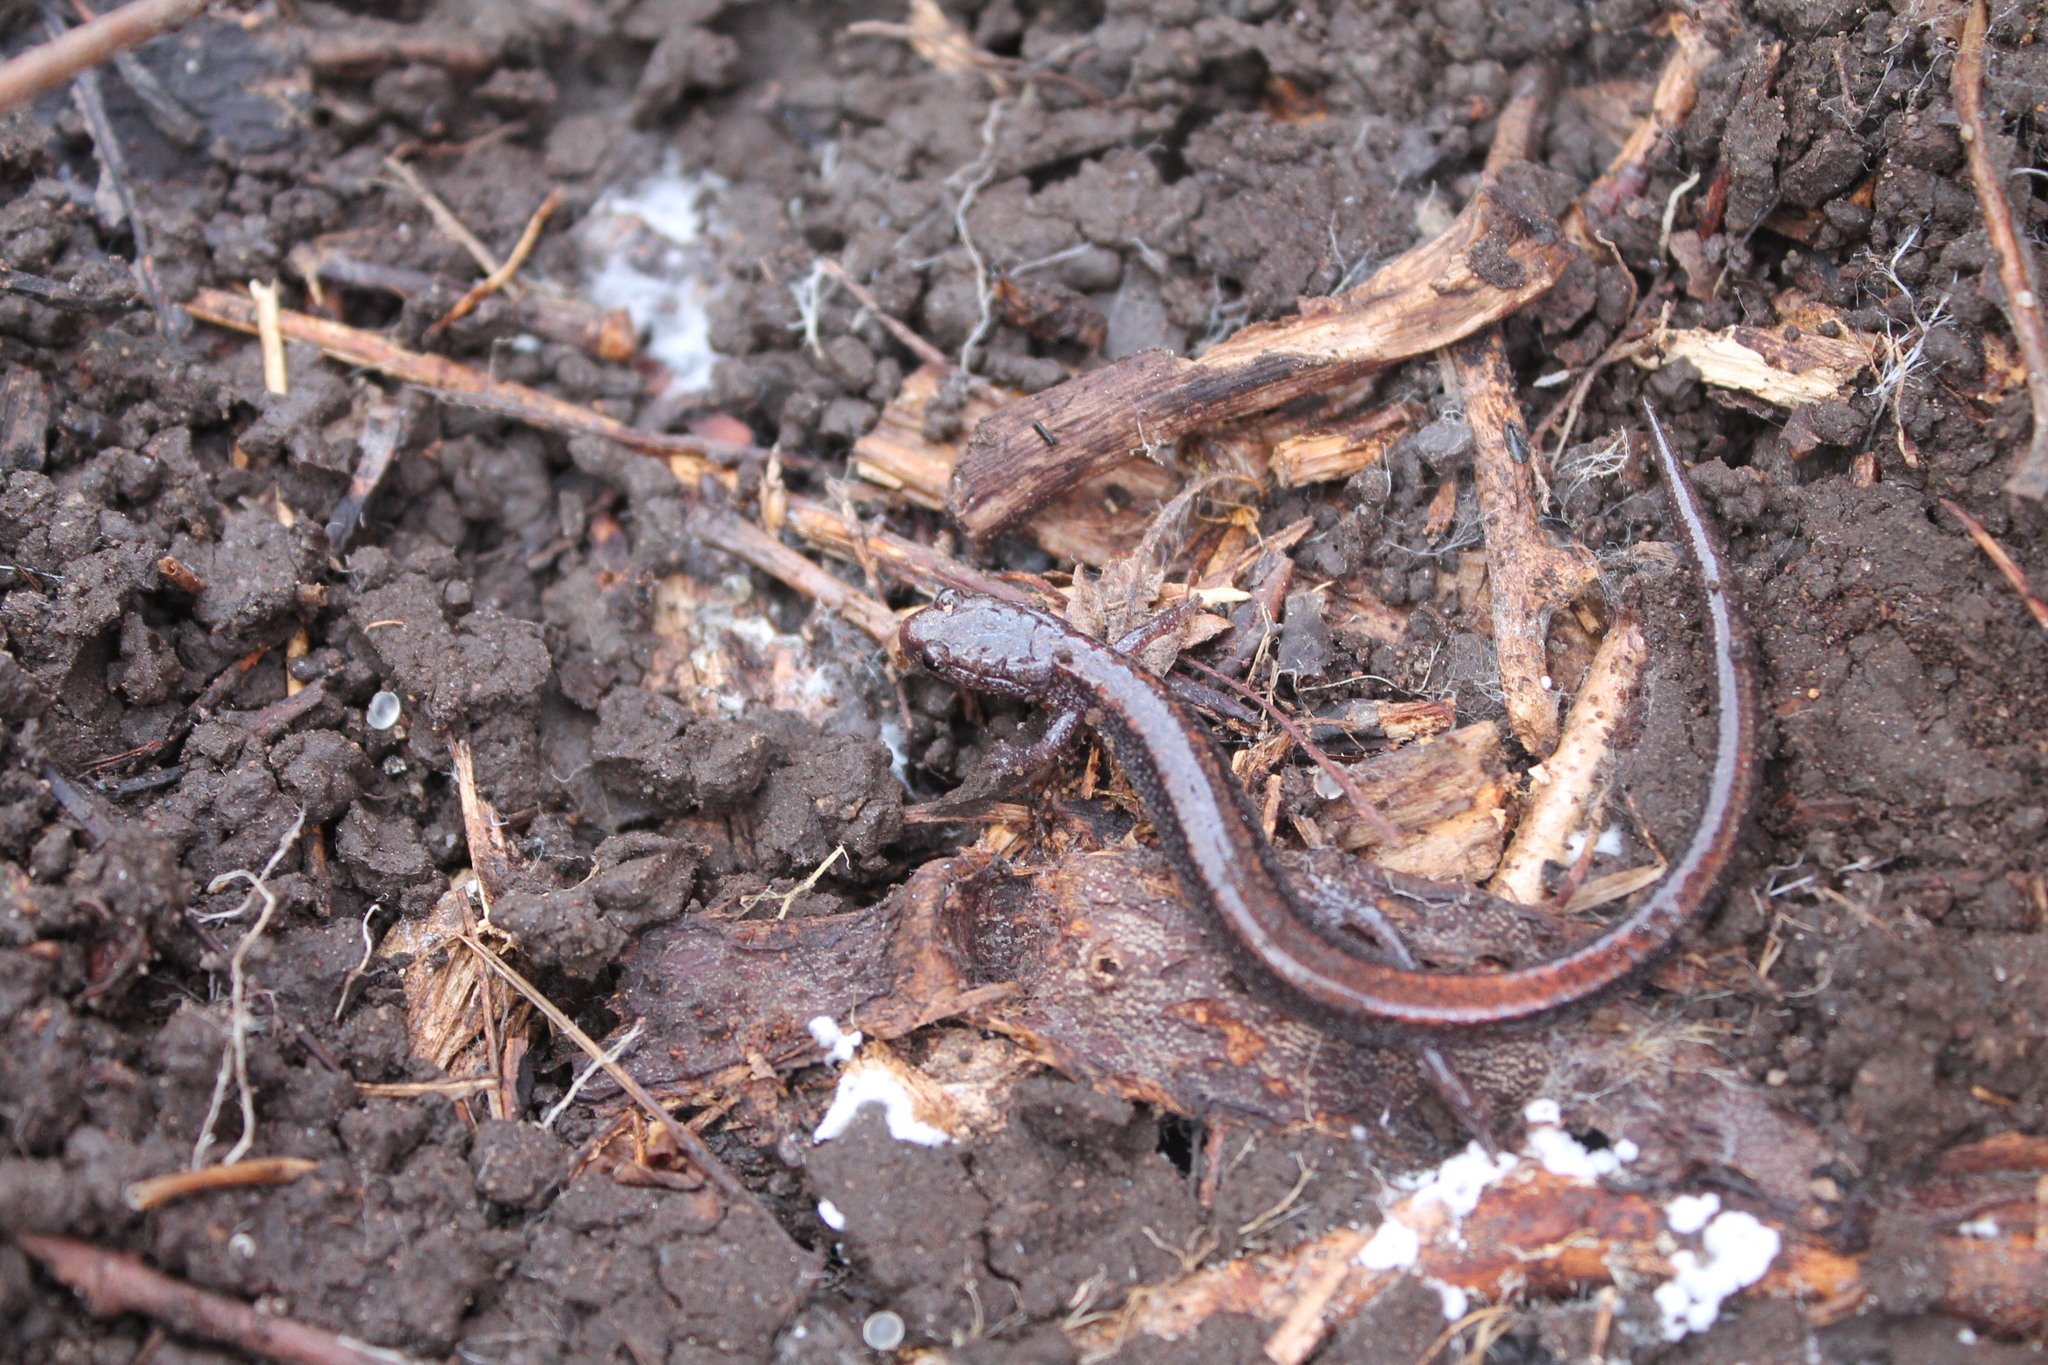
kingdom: Animalia
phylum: Chordata
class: Amphibia
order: Caudata
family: Plethodontidae
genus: Plethodon
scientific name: Plethodon cinereus
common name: Redback salamander
